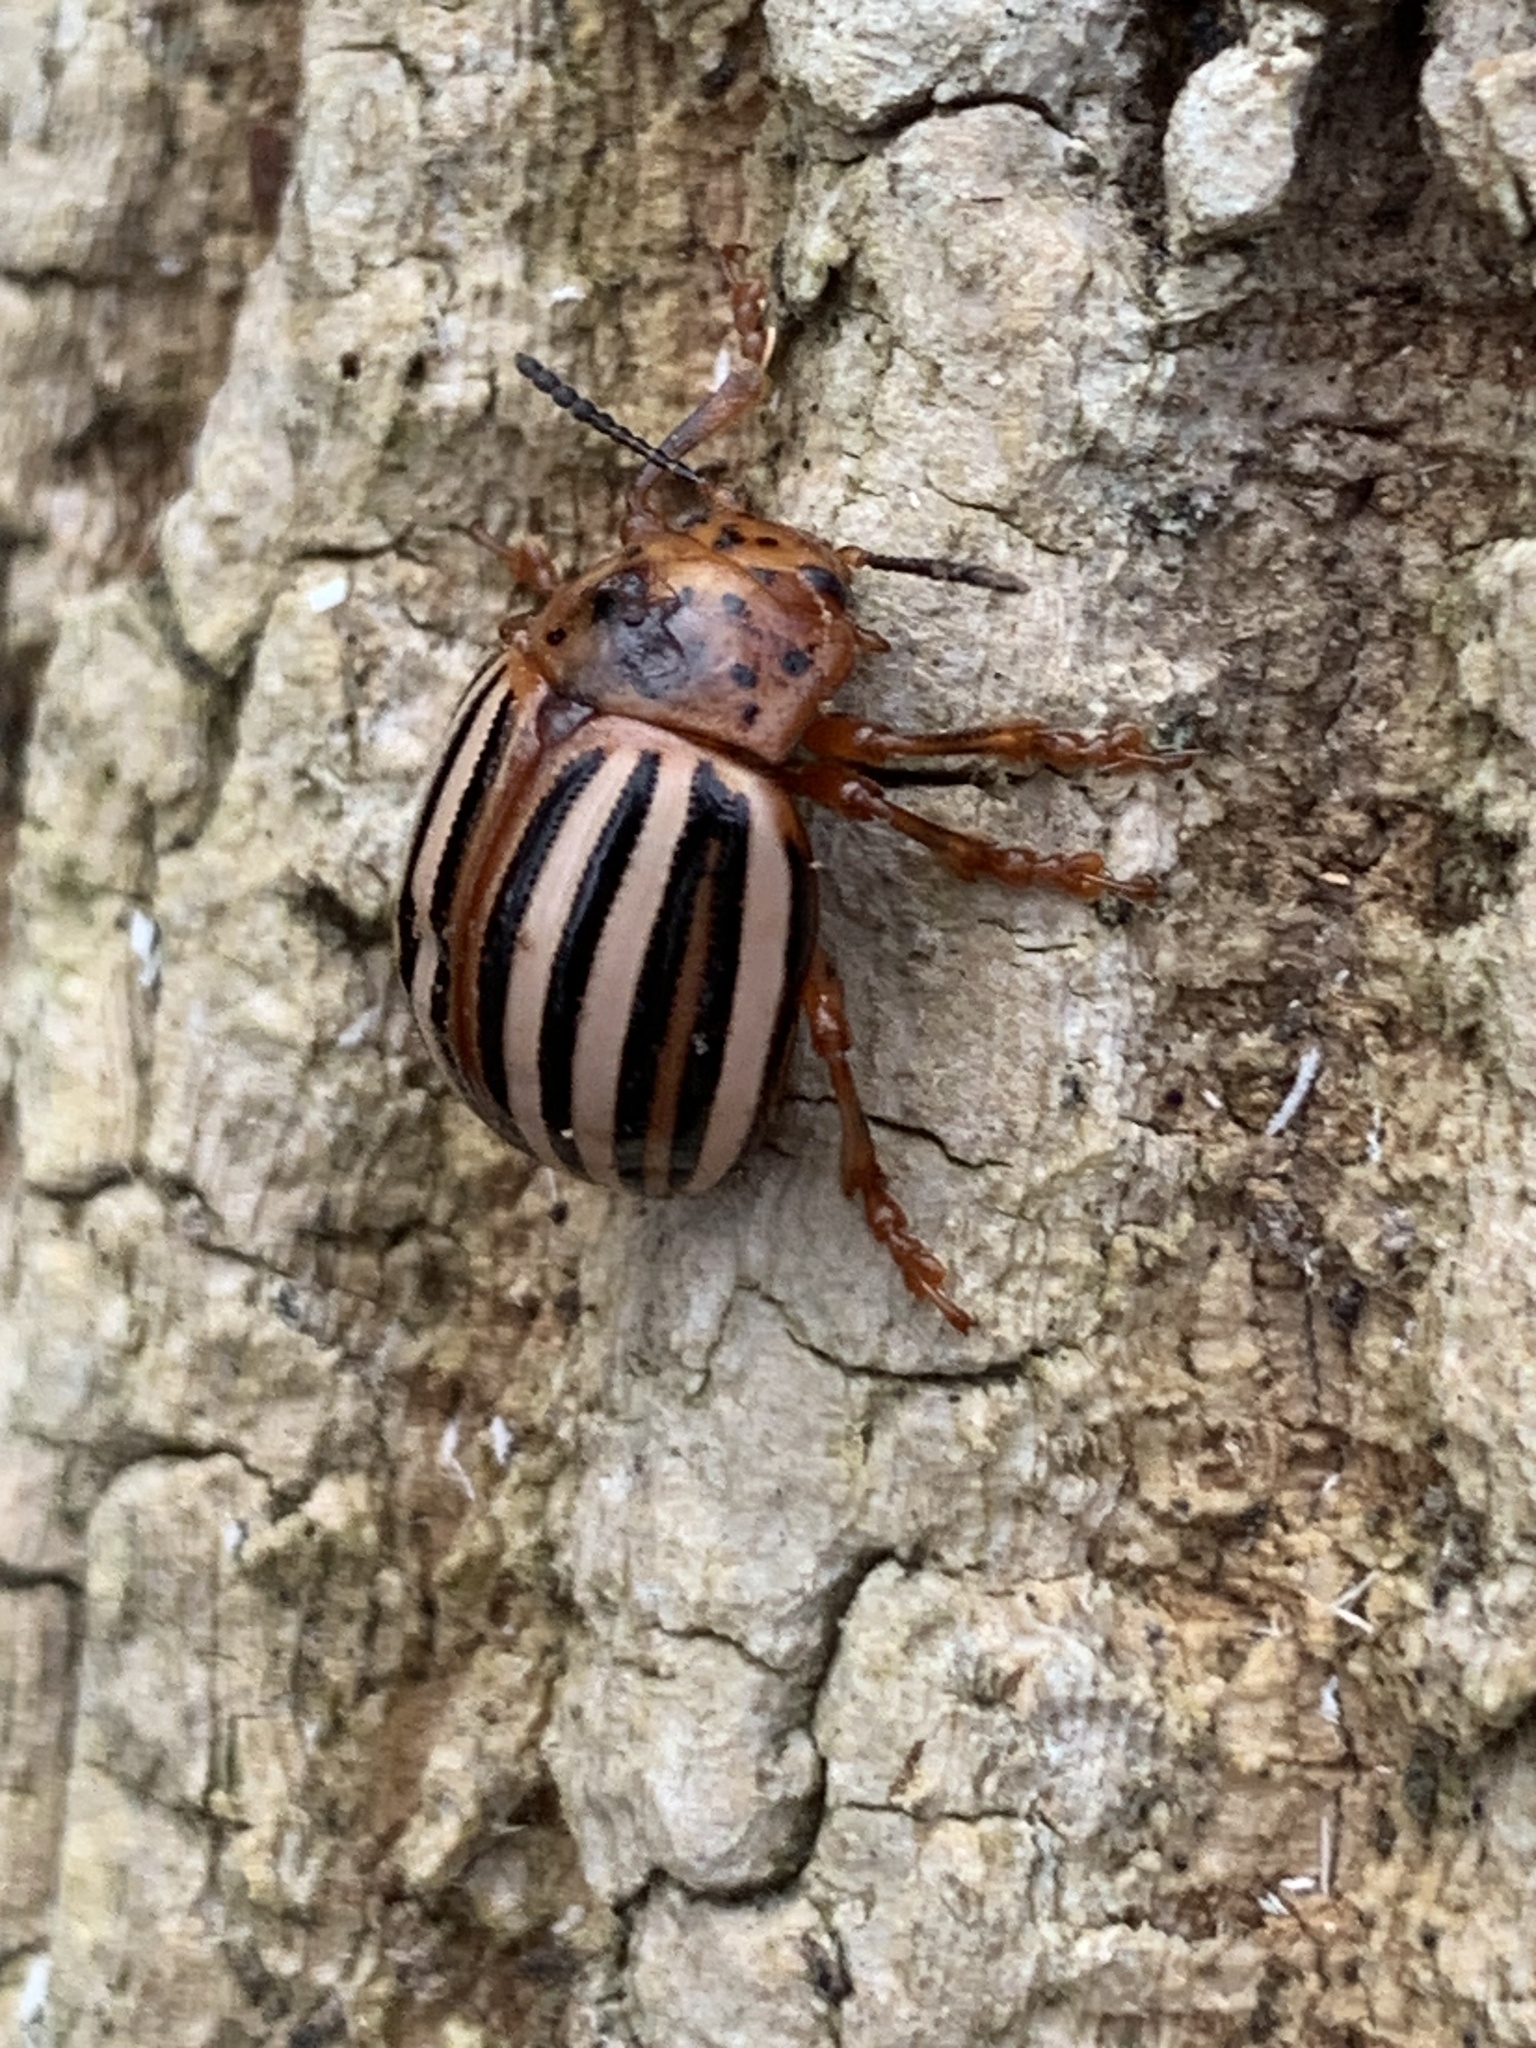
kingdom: Animalia
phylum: Arthropoda
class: Insecta
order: Coleoptera
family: Chrysomelidae
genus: Leptinotarsa
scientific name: Leptinotarsa juncta
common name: False potato beetle
